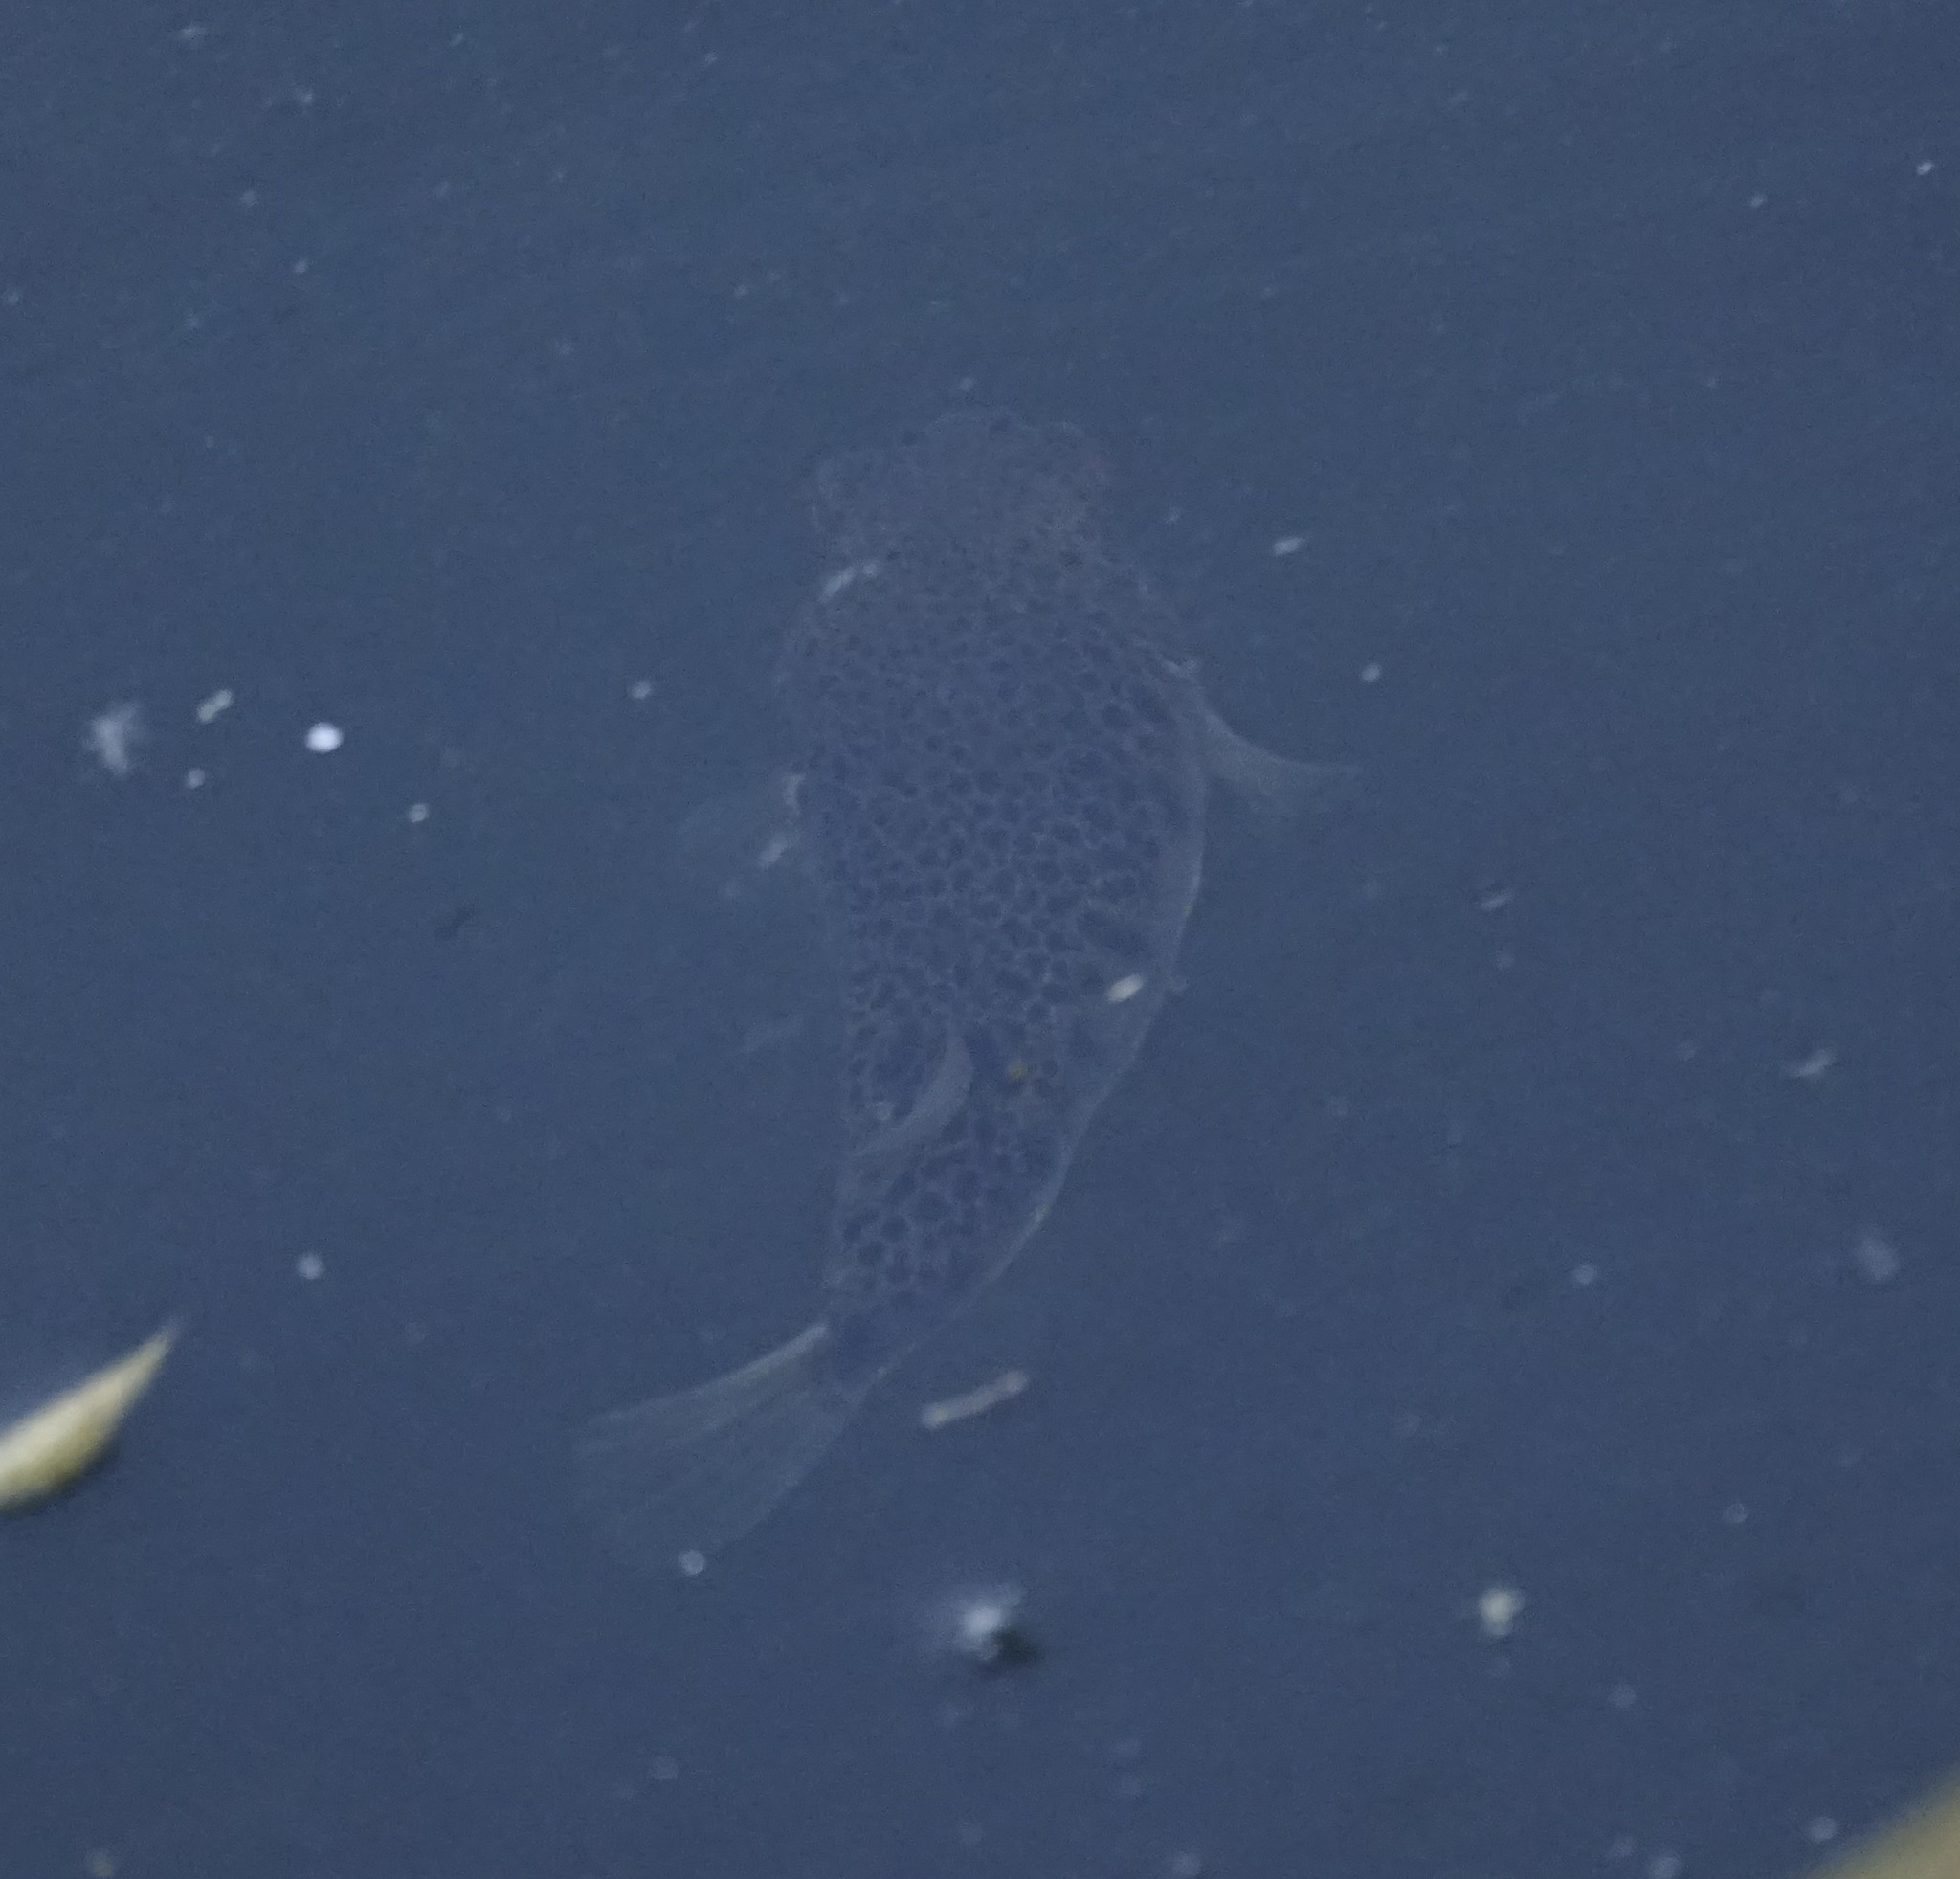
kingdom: Animalia
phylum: Chordata
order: Tetraodontiformes
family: Tetraodontidae
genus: Tetractenos
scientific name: Tetractenos hamiltoni
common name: Common toadfish
